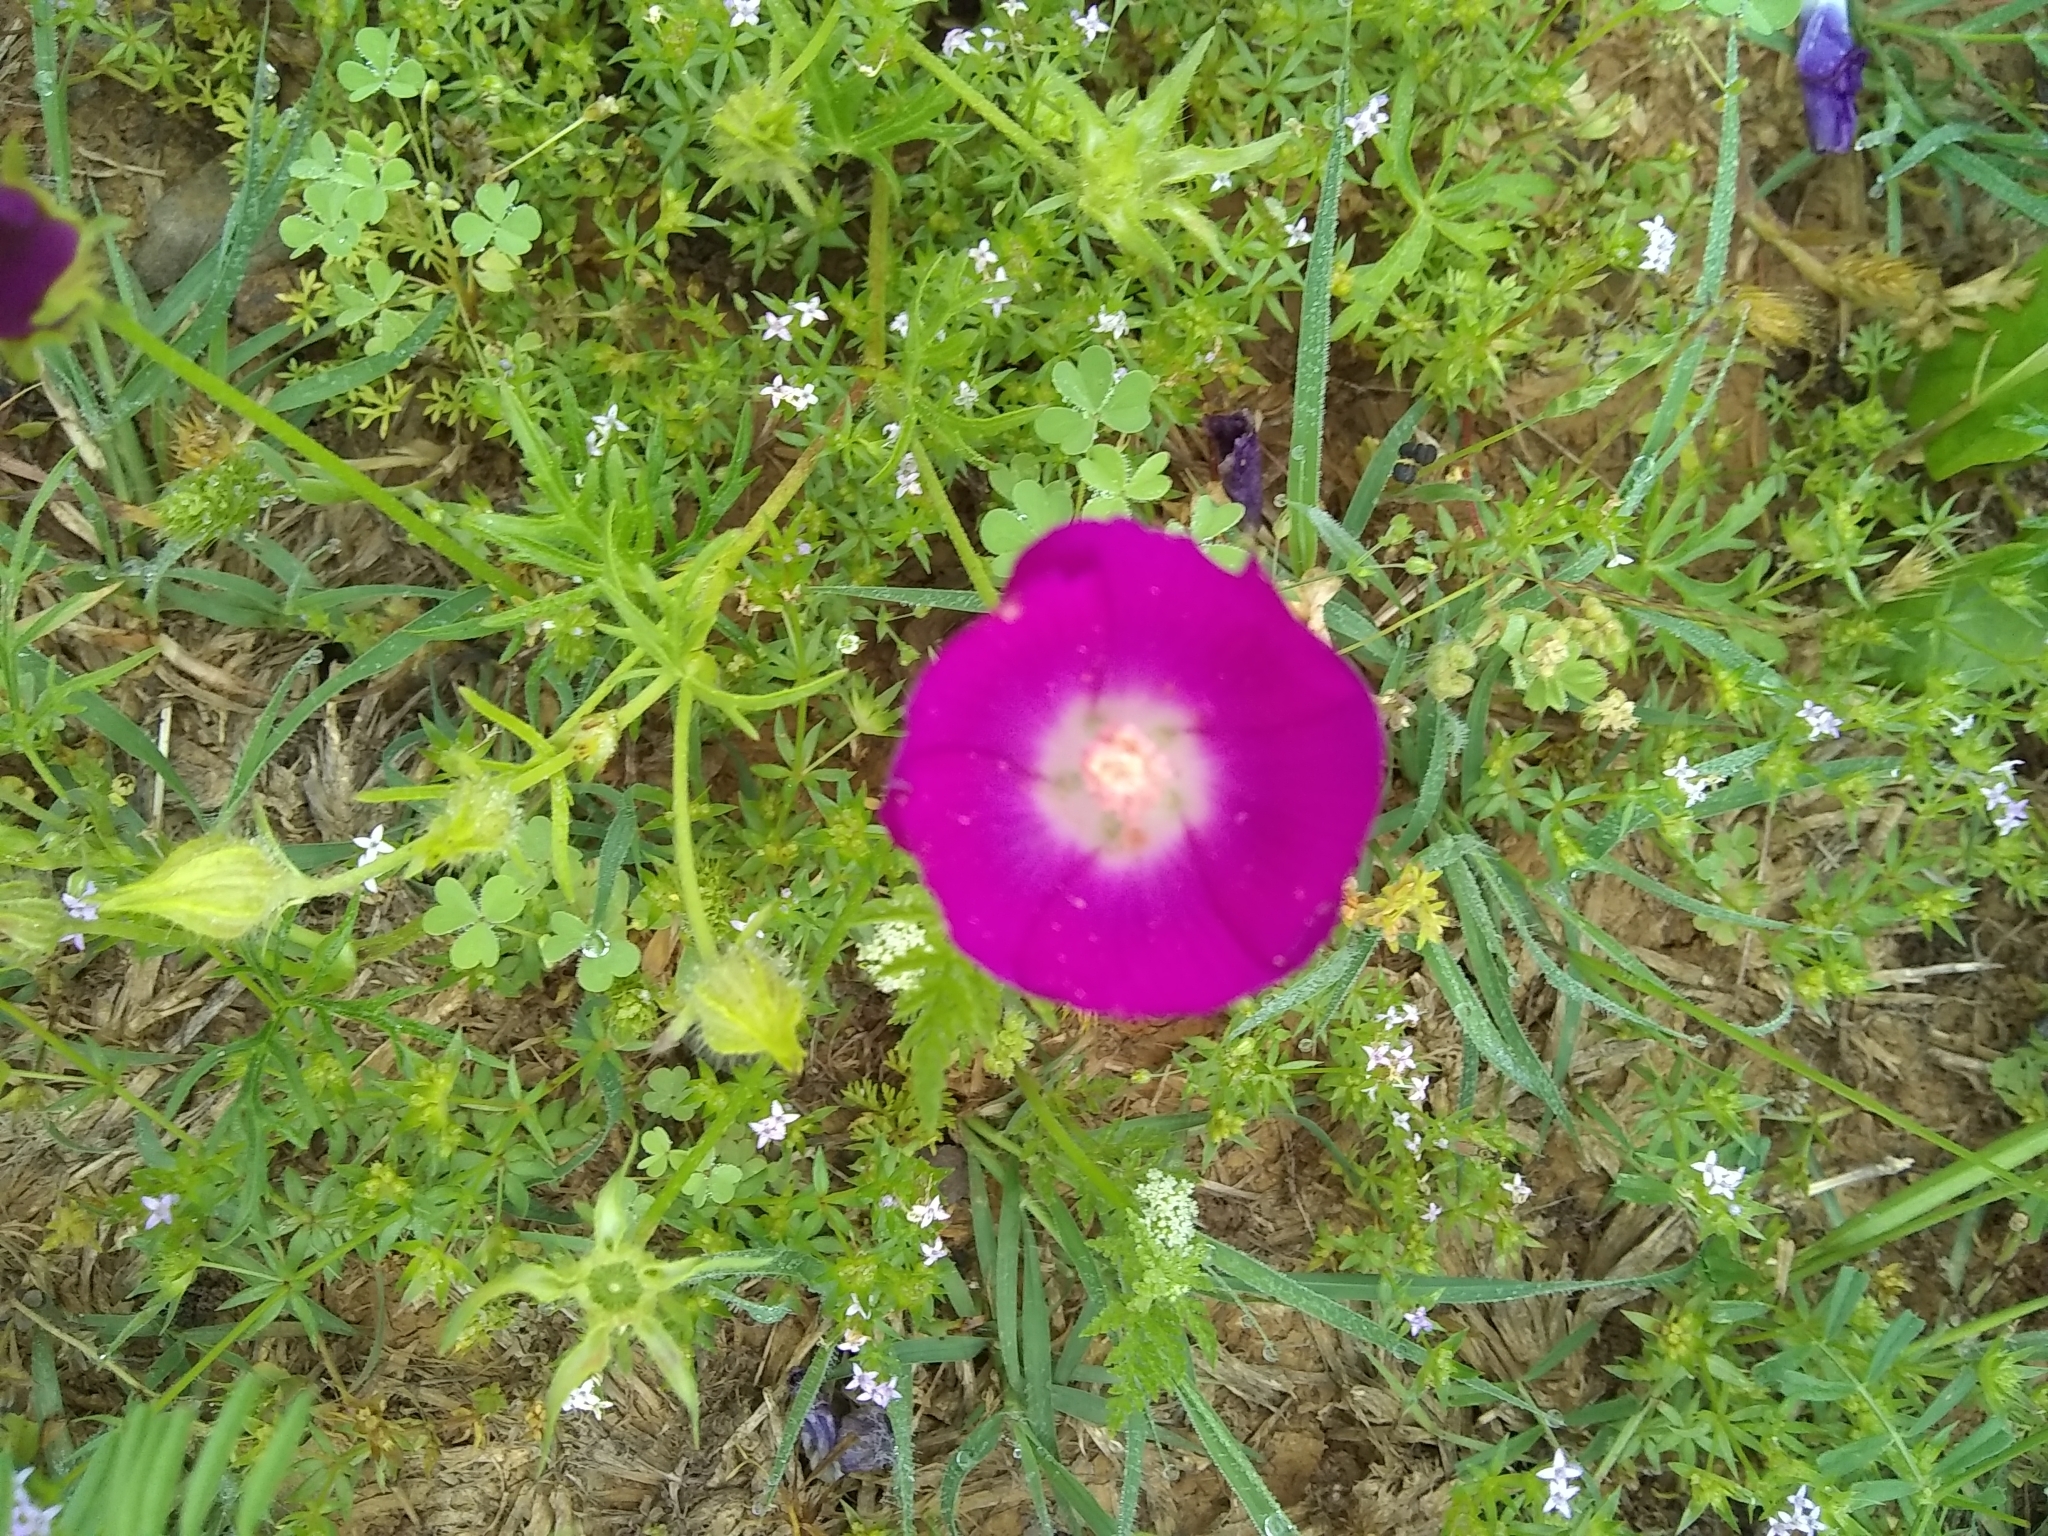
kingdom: Plantae
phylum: Tracheophyta
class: Magnoliopsida
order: Malvales
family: Malvaceae
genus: Callirhoe
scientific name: Callirhoe involucrata
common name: Purple poppy-mallow
